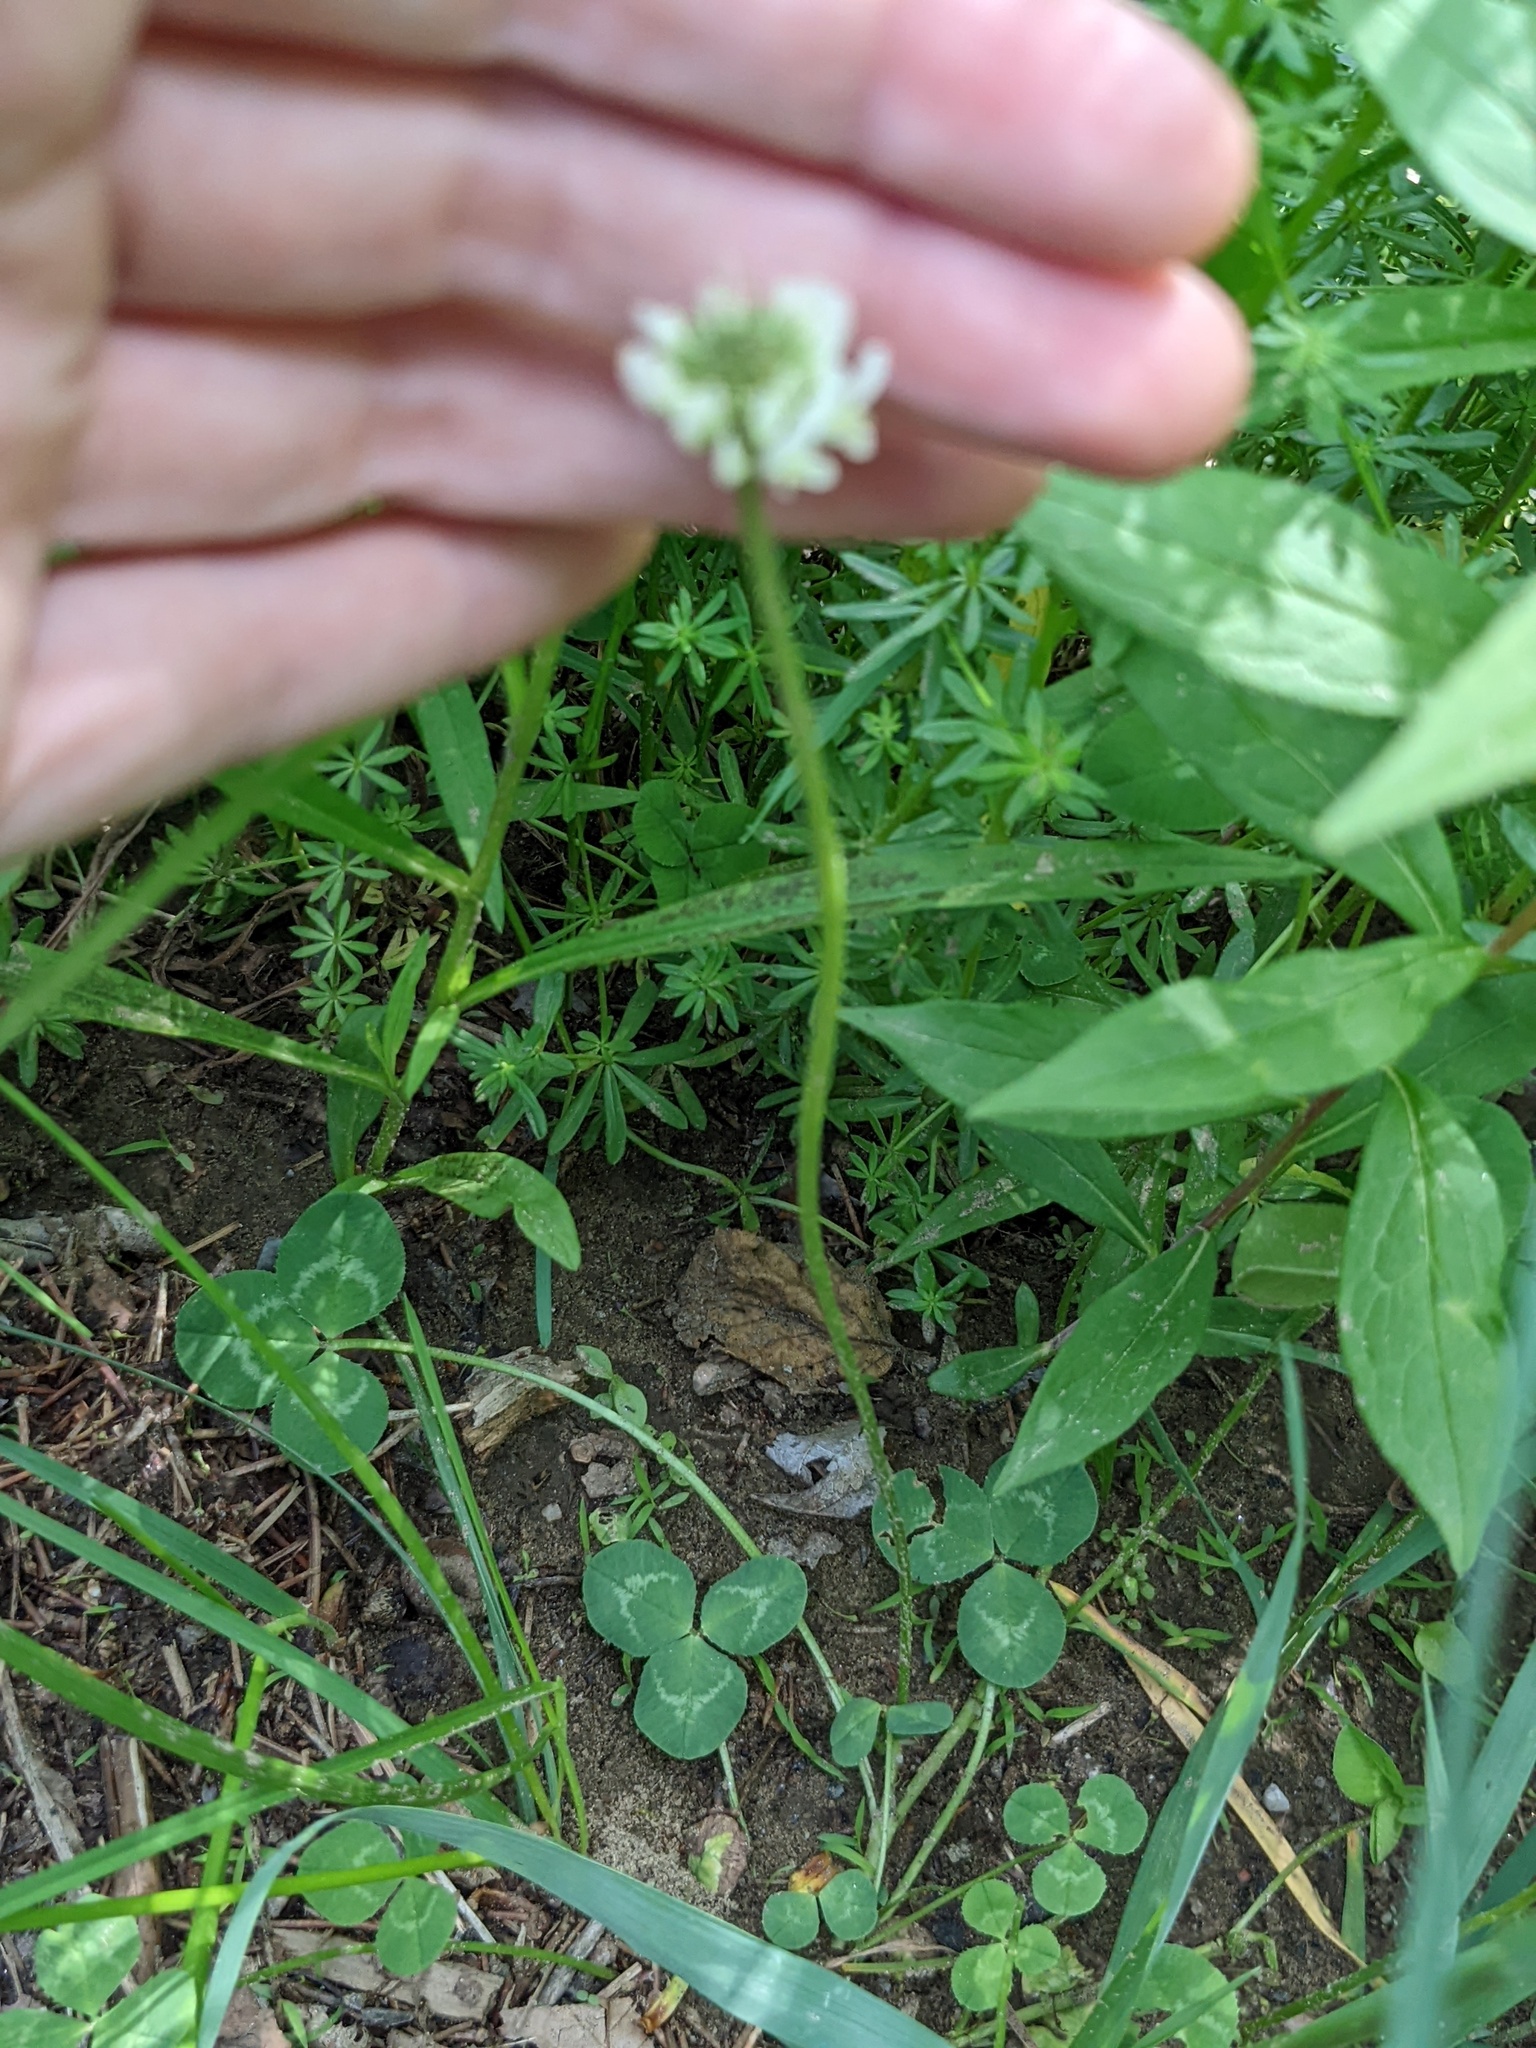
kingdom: Plantae
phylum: Tracheophyta
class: Magnoliopsida
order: Fabales
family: Fabaceae
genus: Trifolium
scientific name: Trifolium repens
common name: White clover
